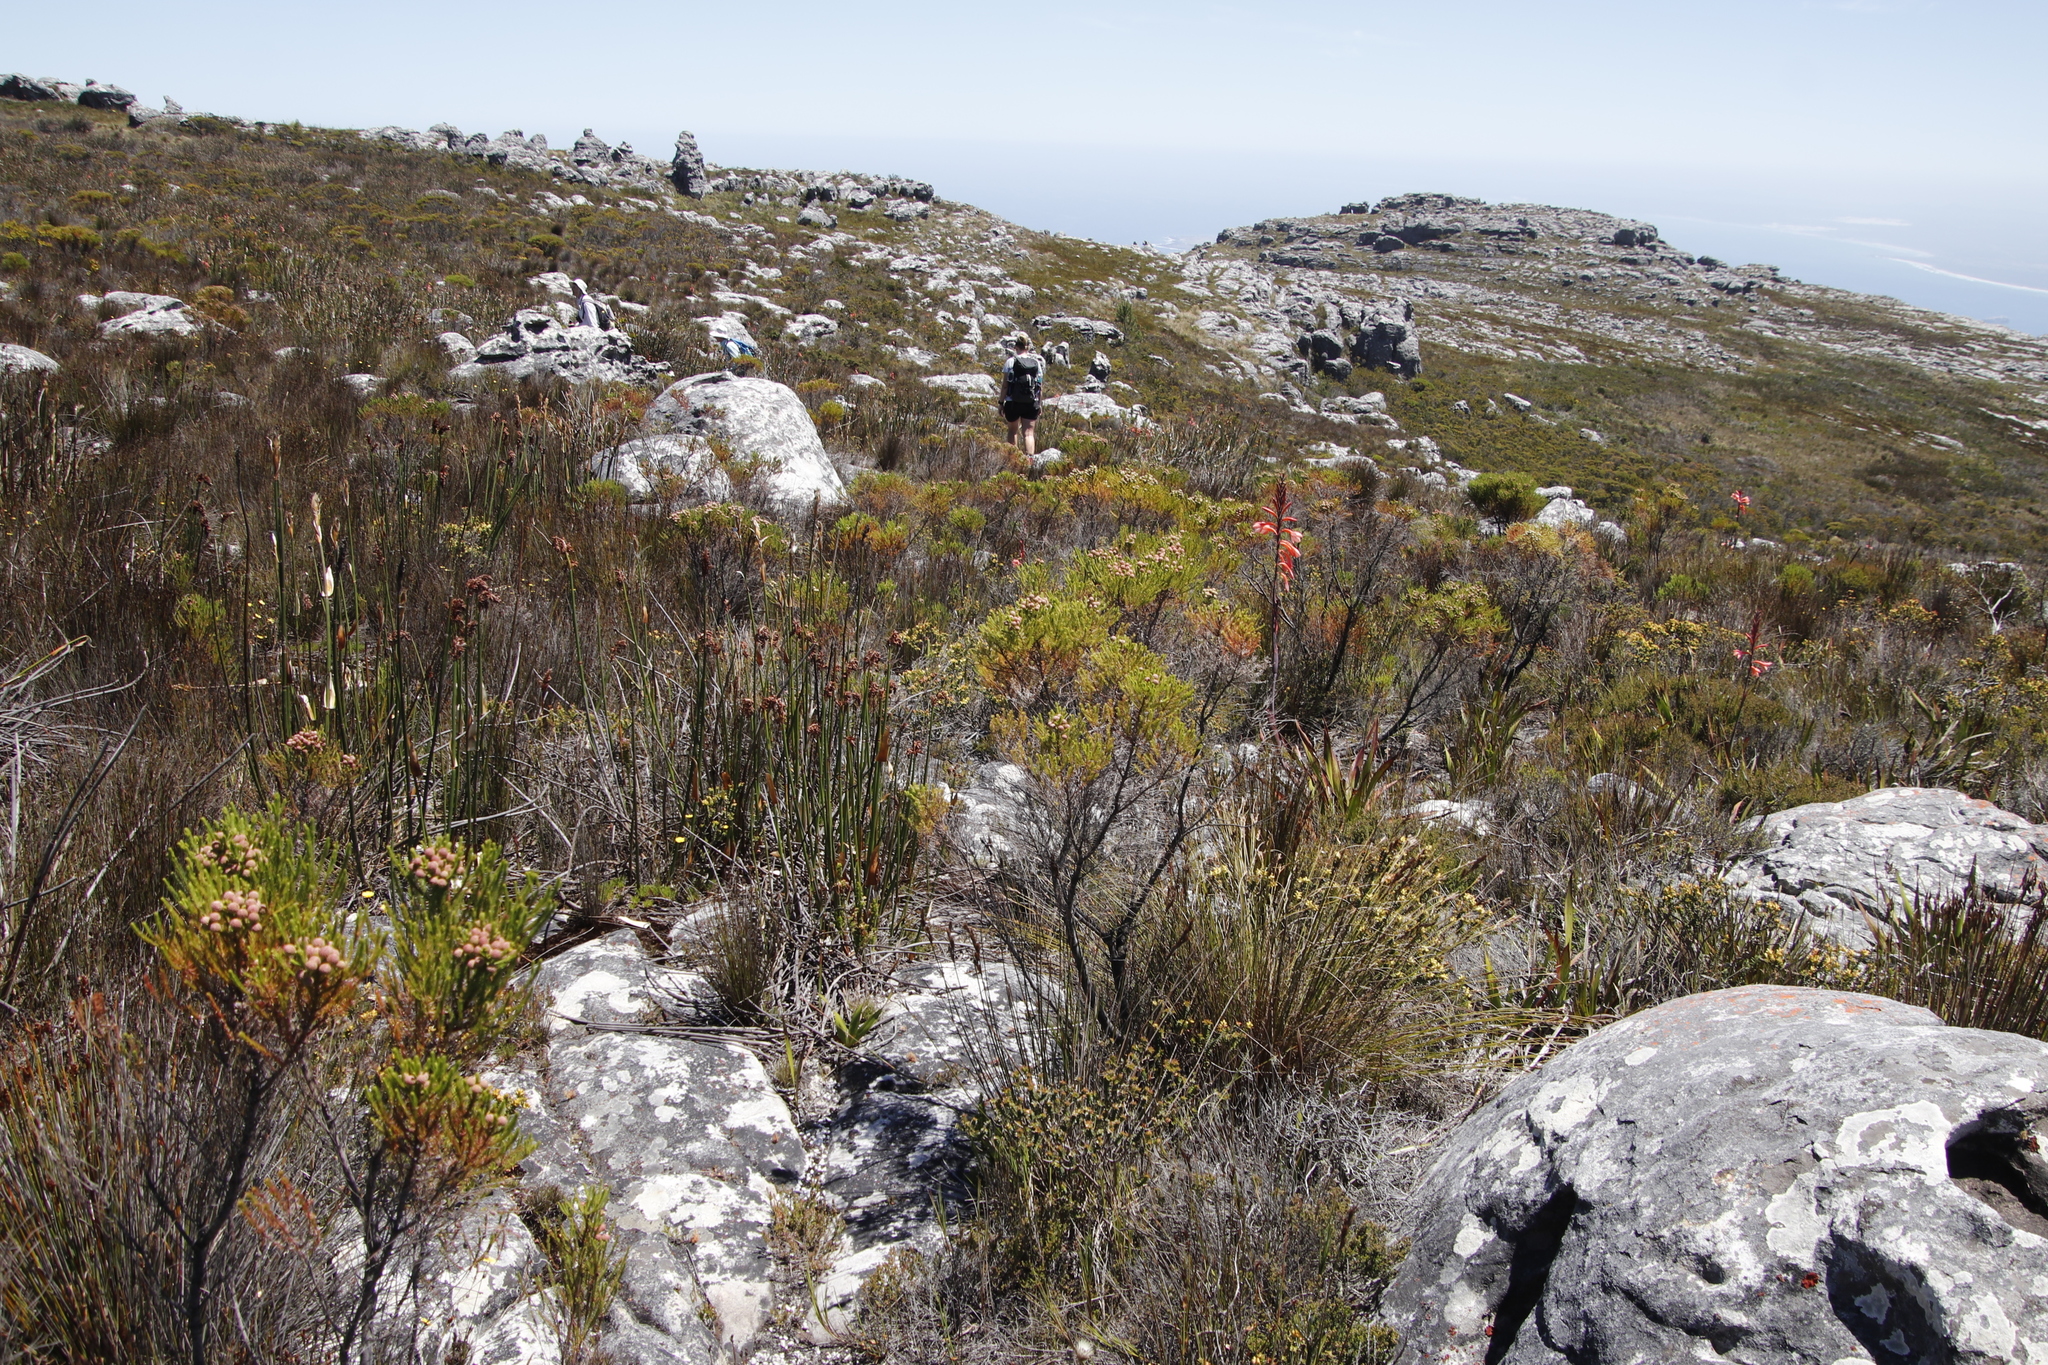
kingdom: Plantae
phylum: Tracheophyta
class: Liliopsida
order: Poales
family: Restionaceae
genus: Elegia
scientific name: Elegia mucronata
